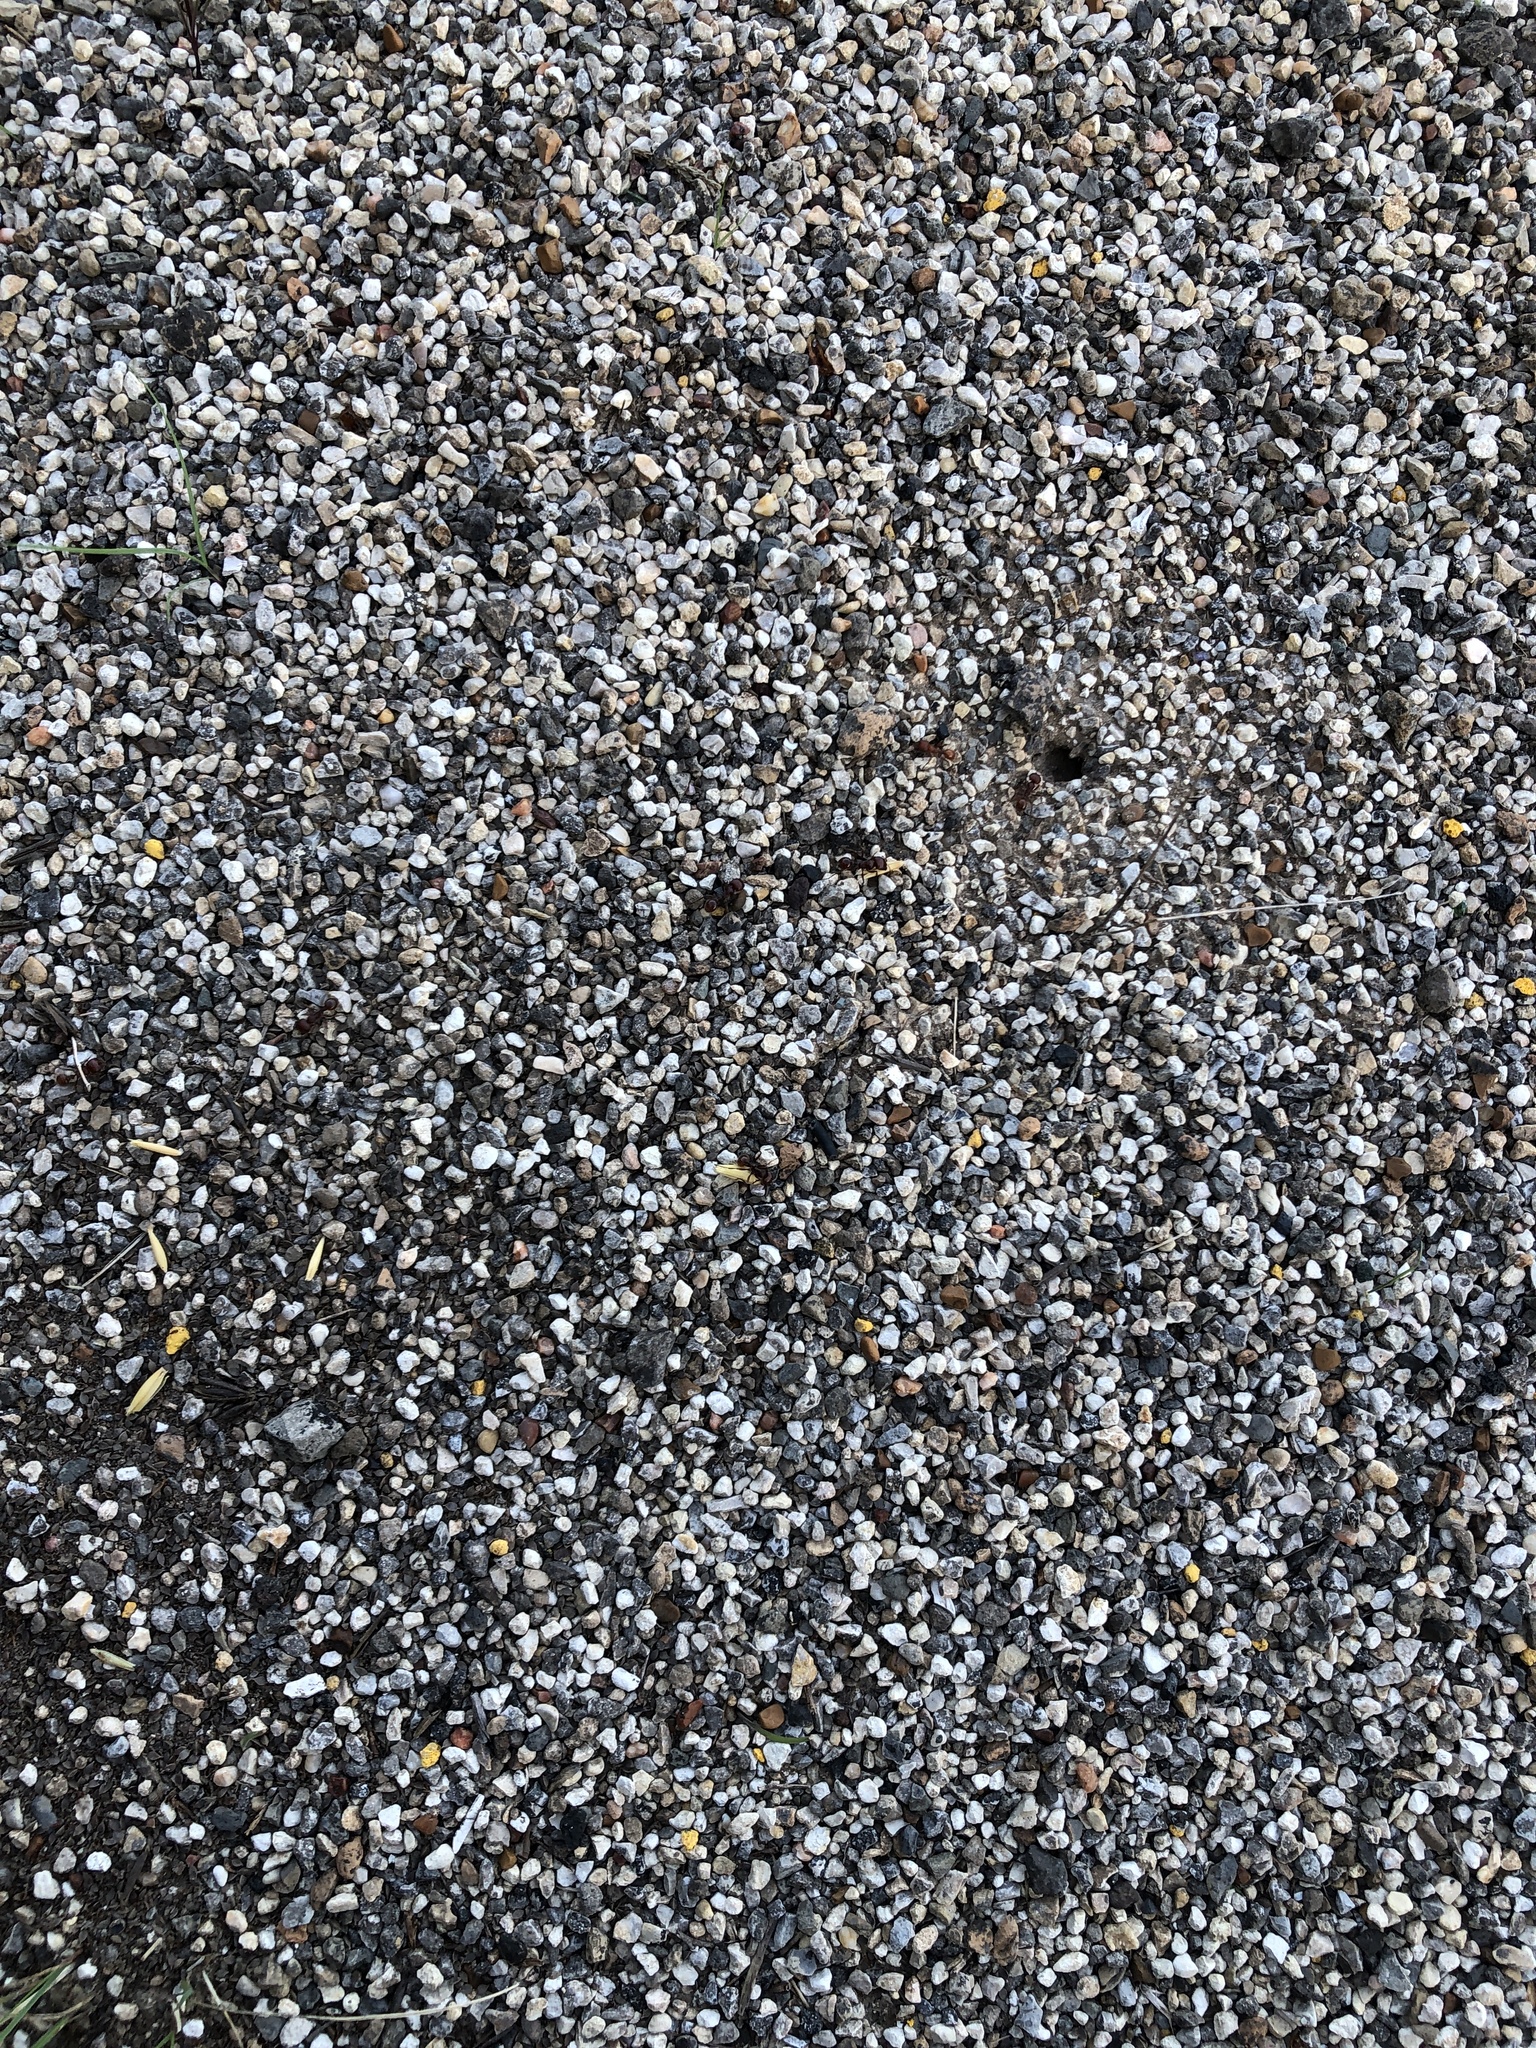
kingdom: Animalia
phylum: Arthropoda
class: Insecta
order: Hymenoptera
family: Formicidae
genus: Pogonomyrmex
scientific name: Pogonomyrmex barbatus
